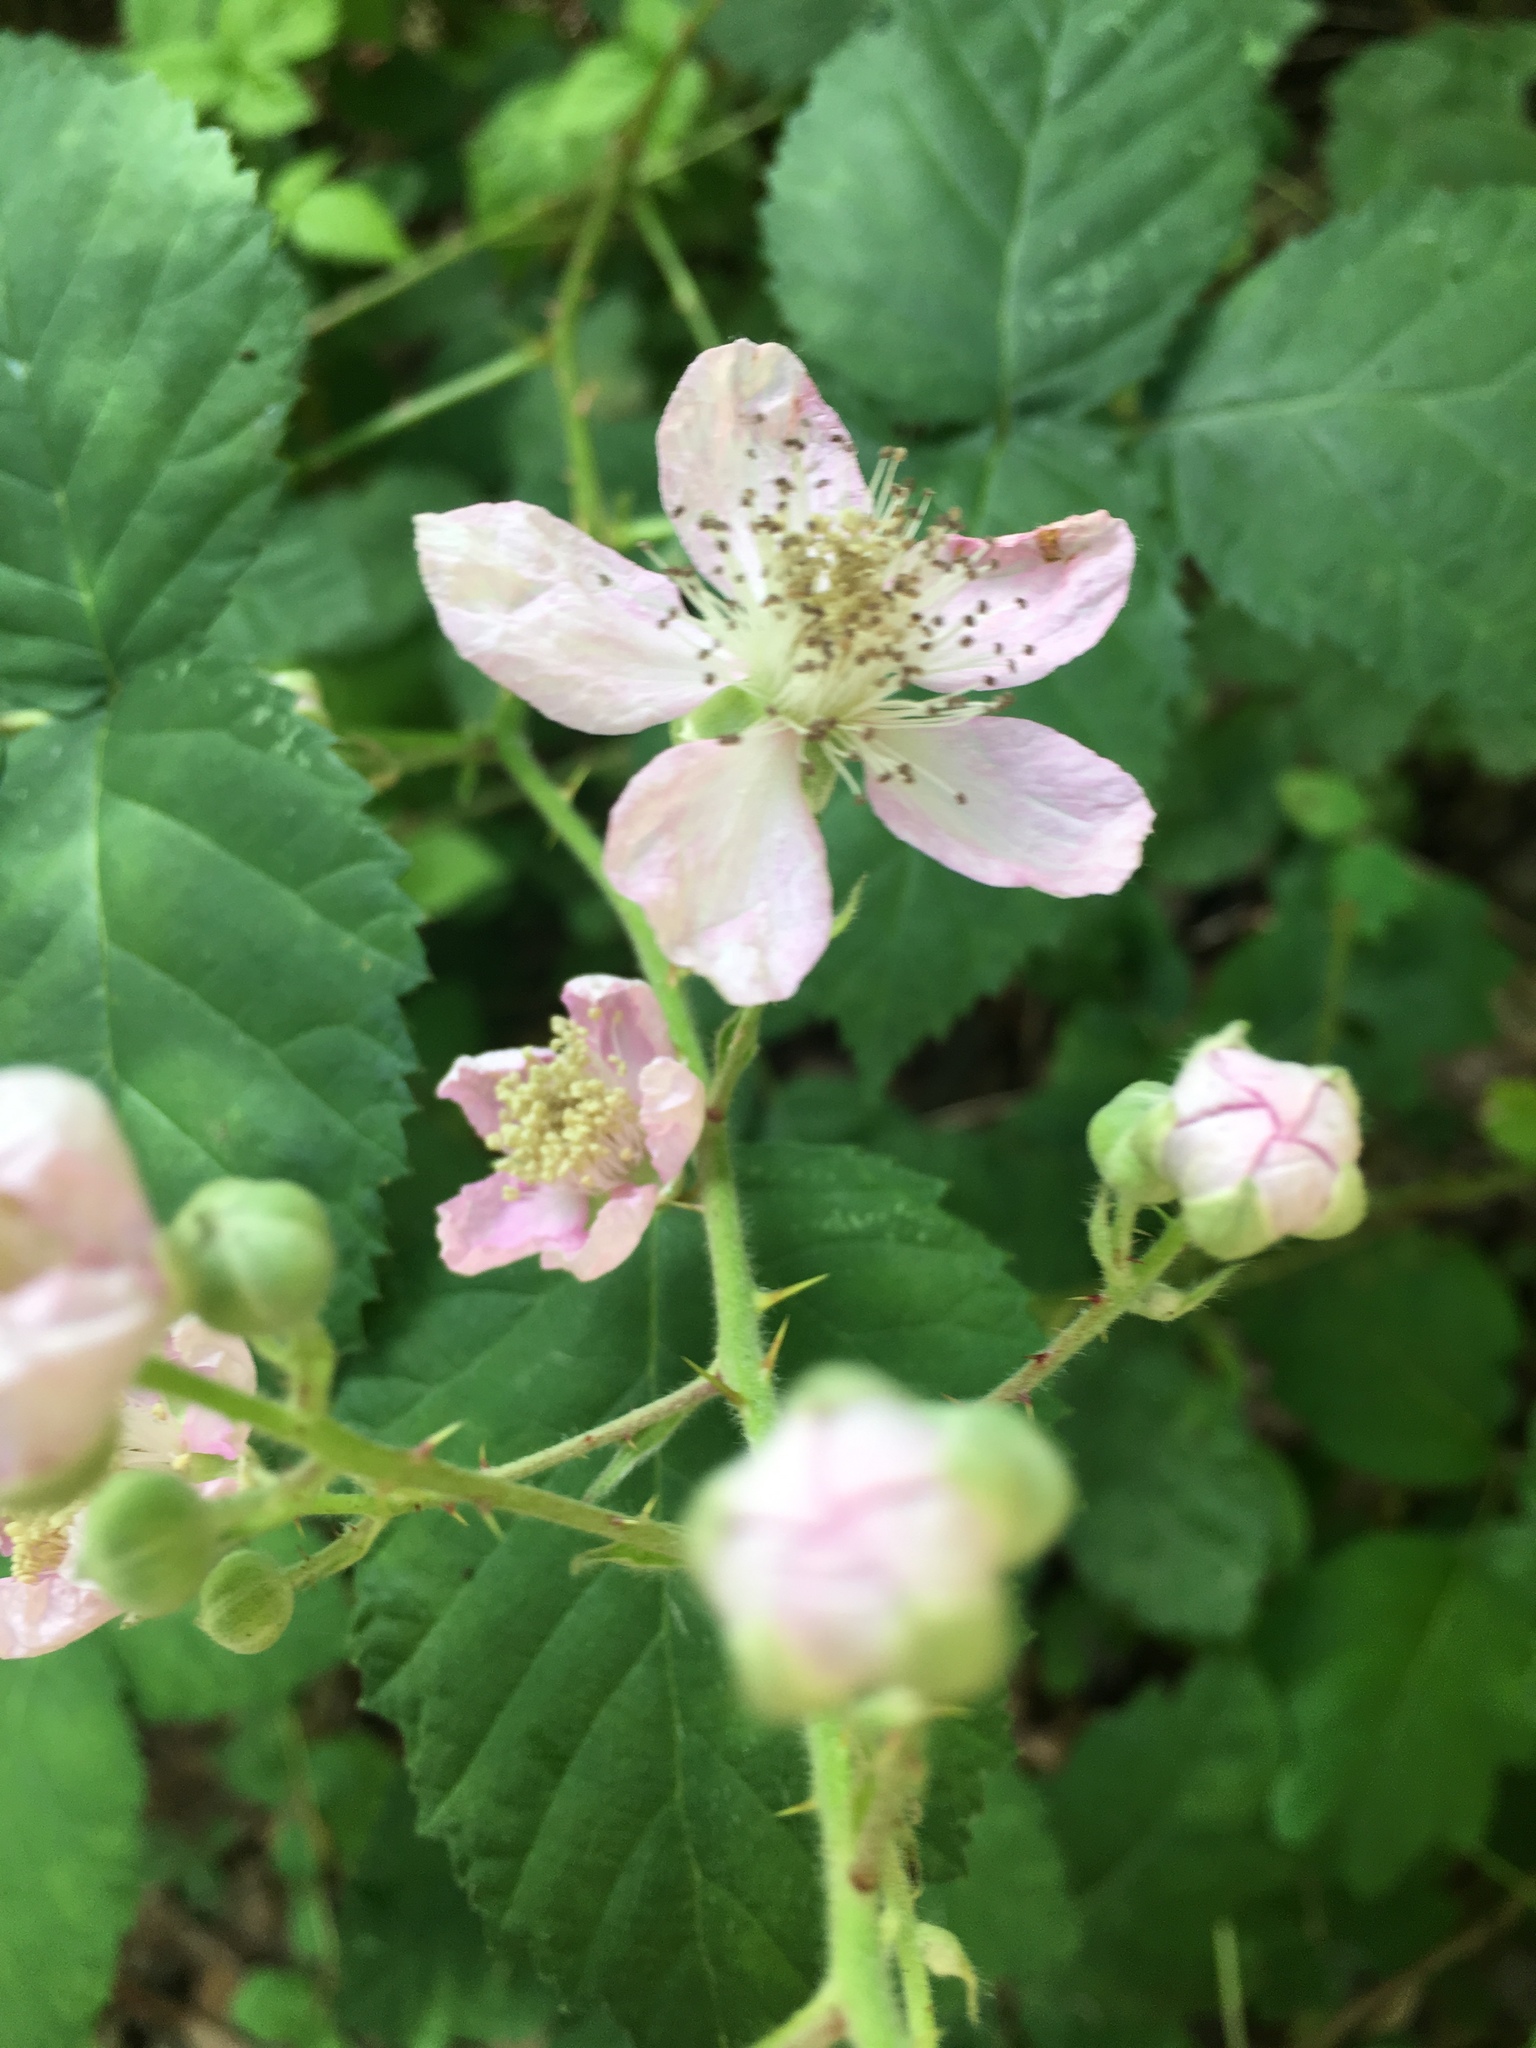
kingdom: Plantae
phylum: Tracheophyta
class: Magnoliopsida
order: Rosales
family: Rosaceae
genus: Rubus
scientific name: Rubus armeniacus
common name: Himalayan blackberry
